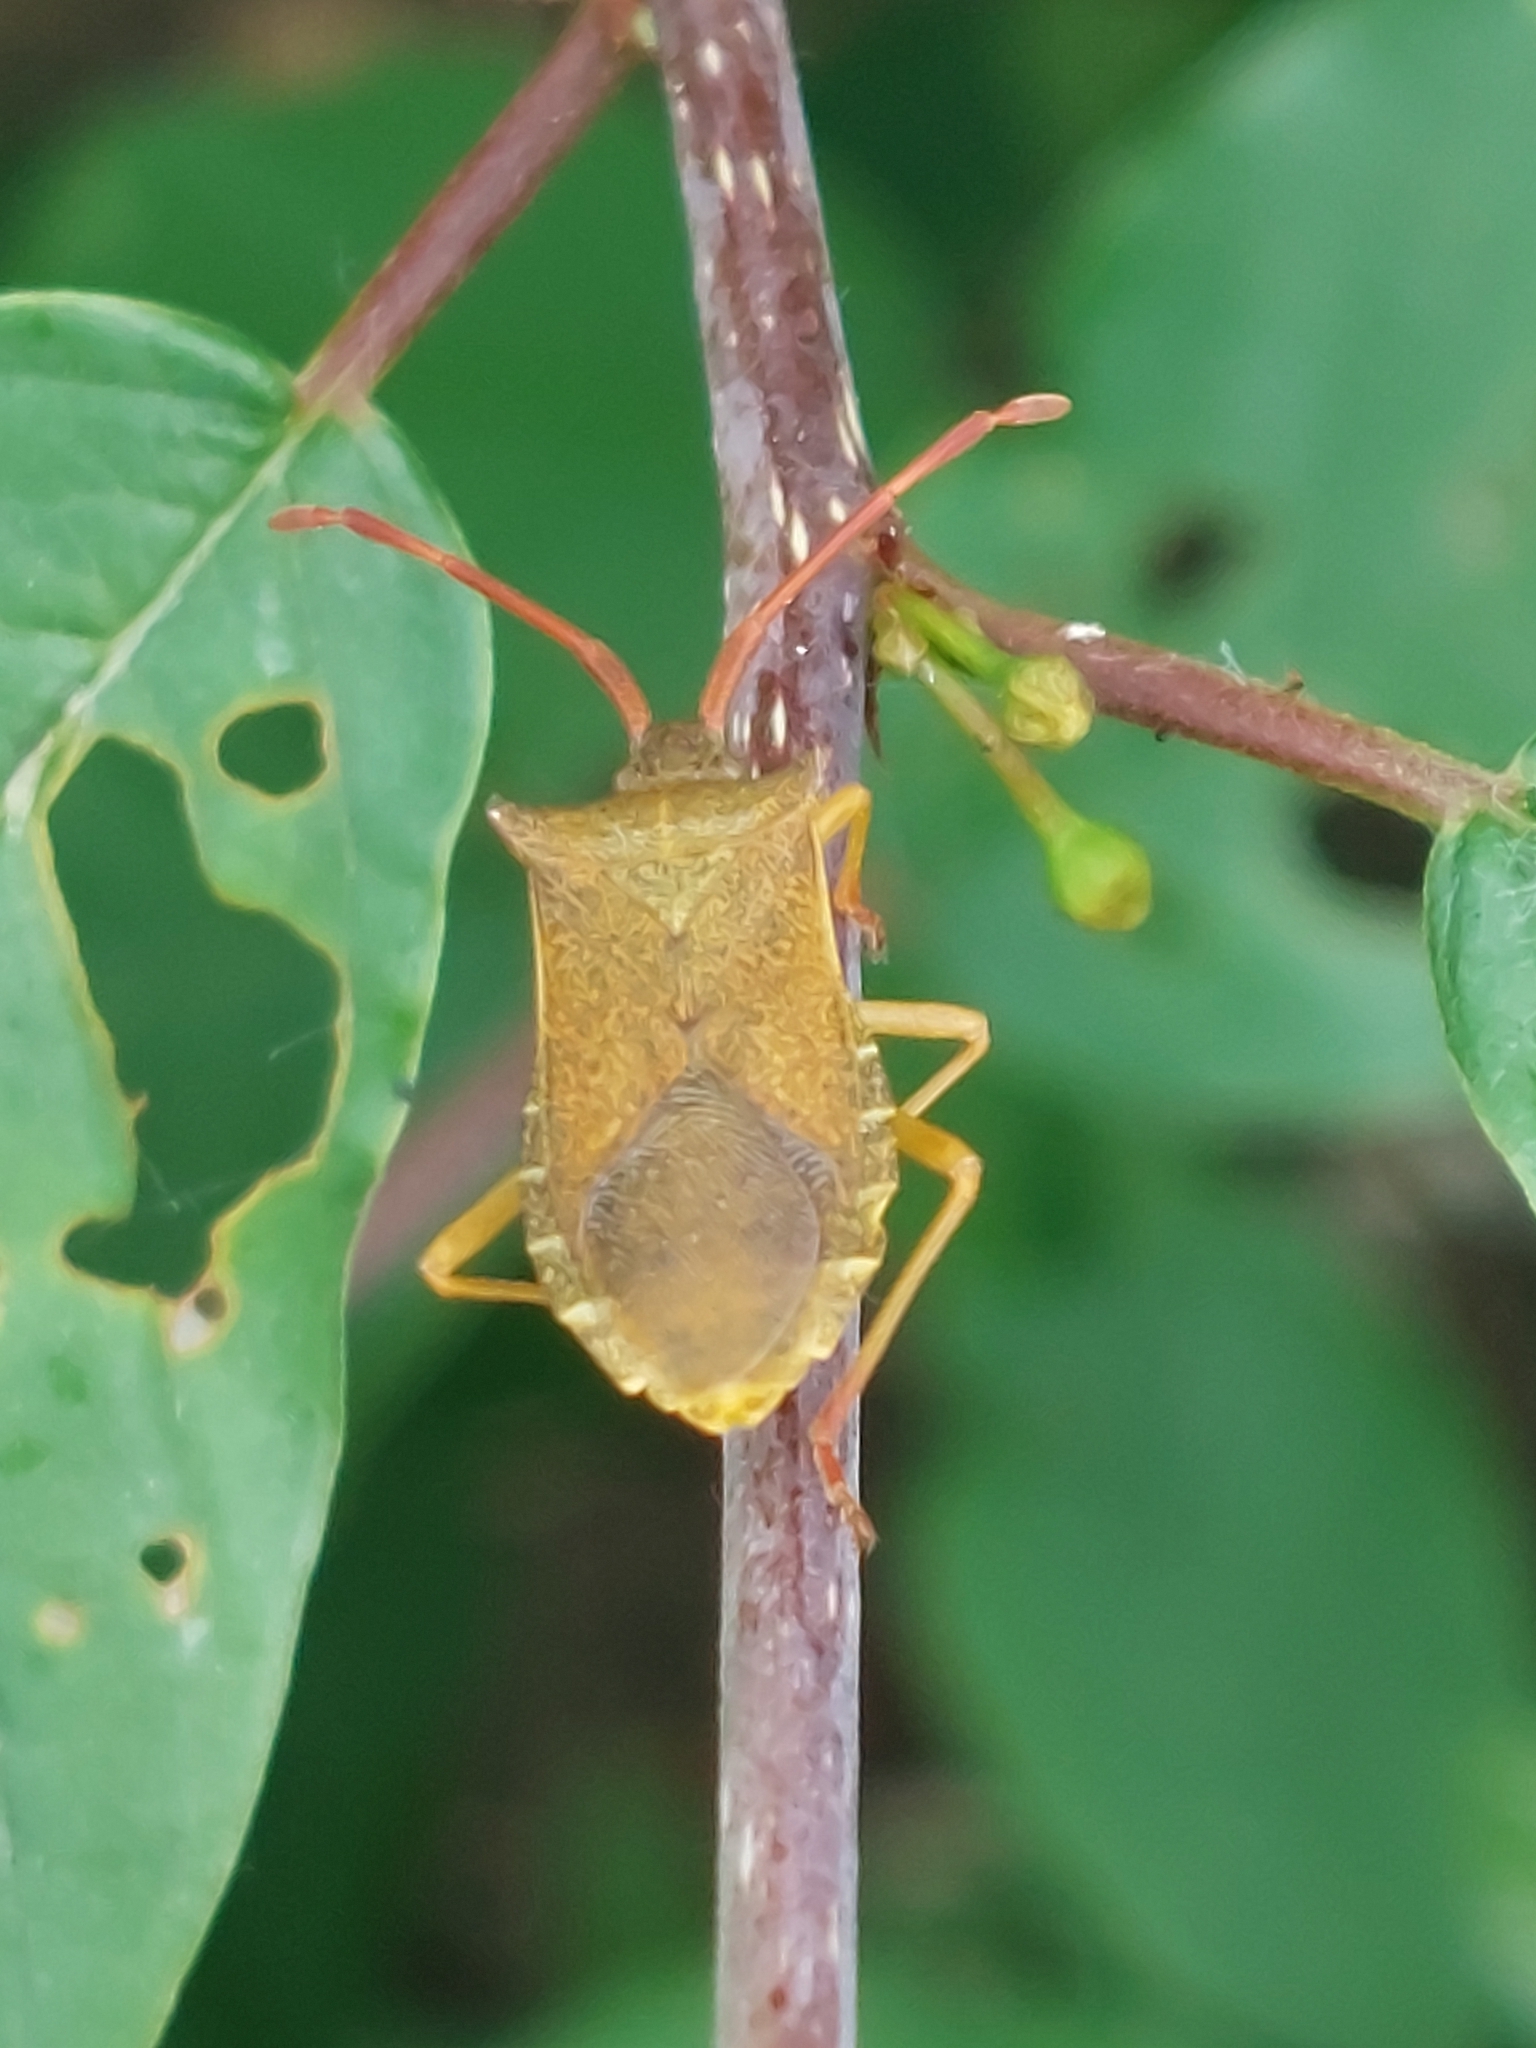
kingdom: Animalia
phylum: Arthropoda
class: Insecta
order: Hemiptera
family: Coreidae
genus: Gonocerus
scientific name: Gonocerus acuteangulatus
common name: Box bug
